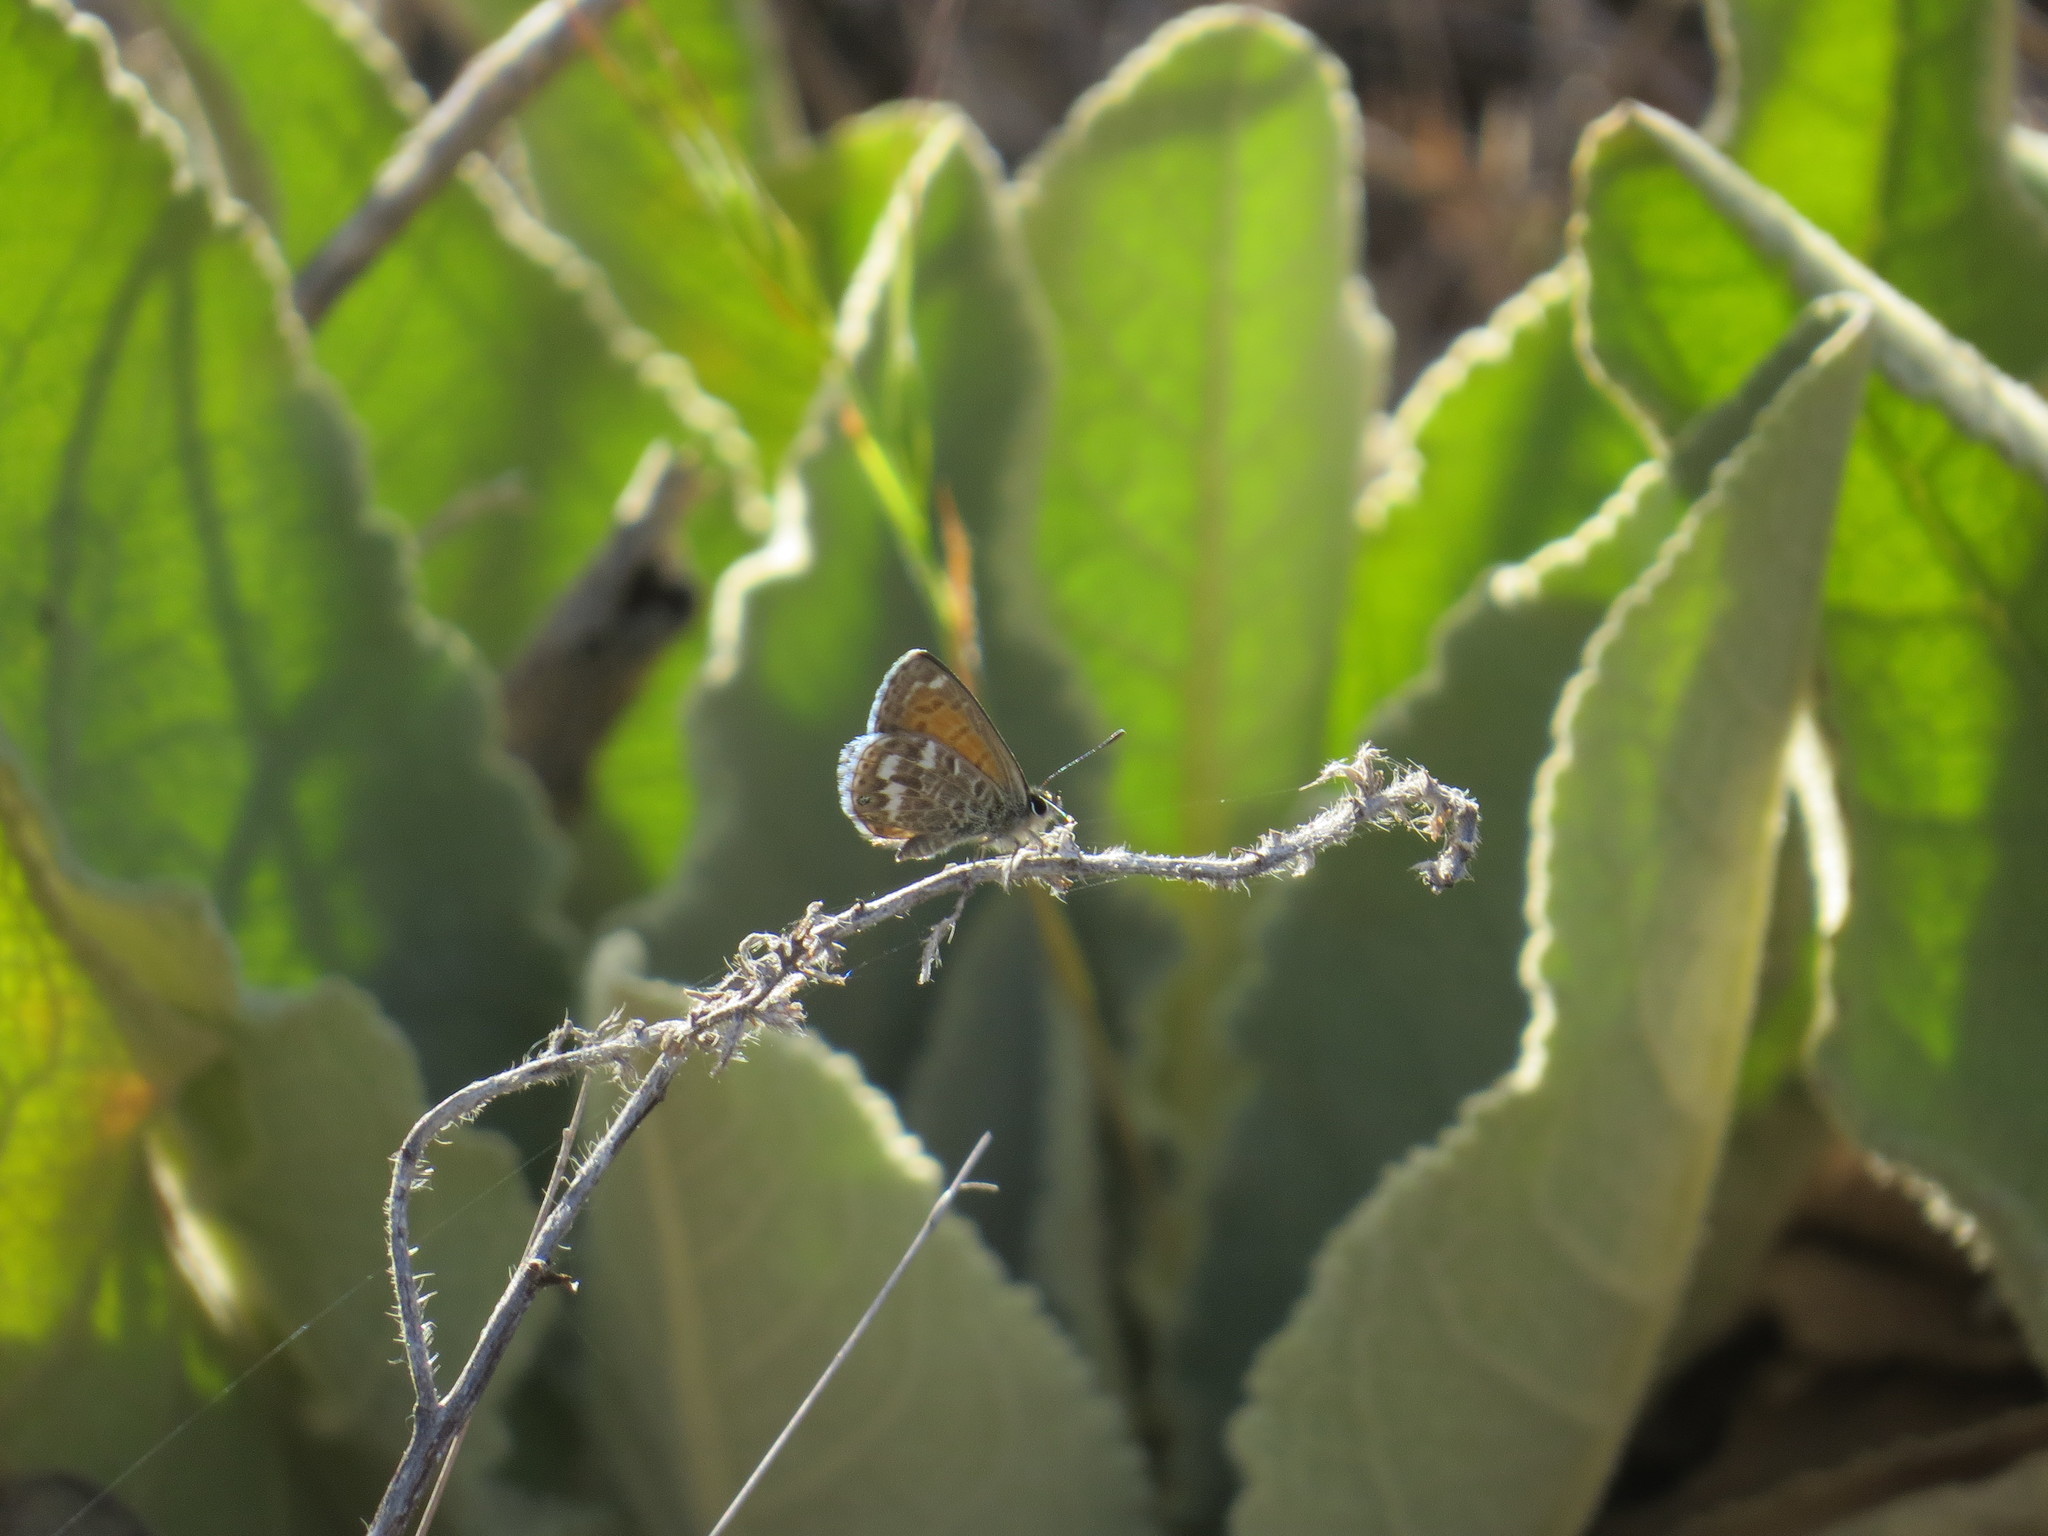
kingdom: Animalia
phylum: Arthropoda
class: Insecta
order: Lepidoptera
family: Lycaenidae
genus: Cyclyrius
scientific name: Cyclyrius webbianus
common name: Canary blue
